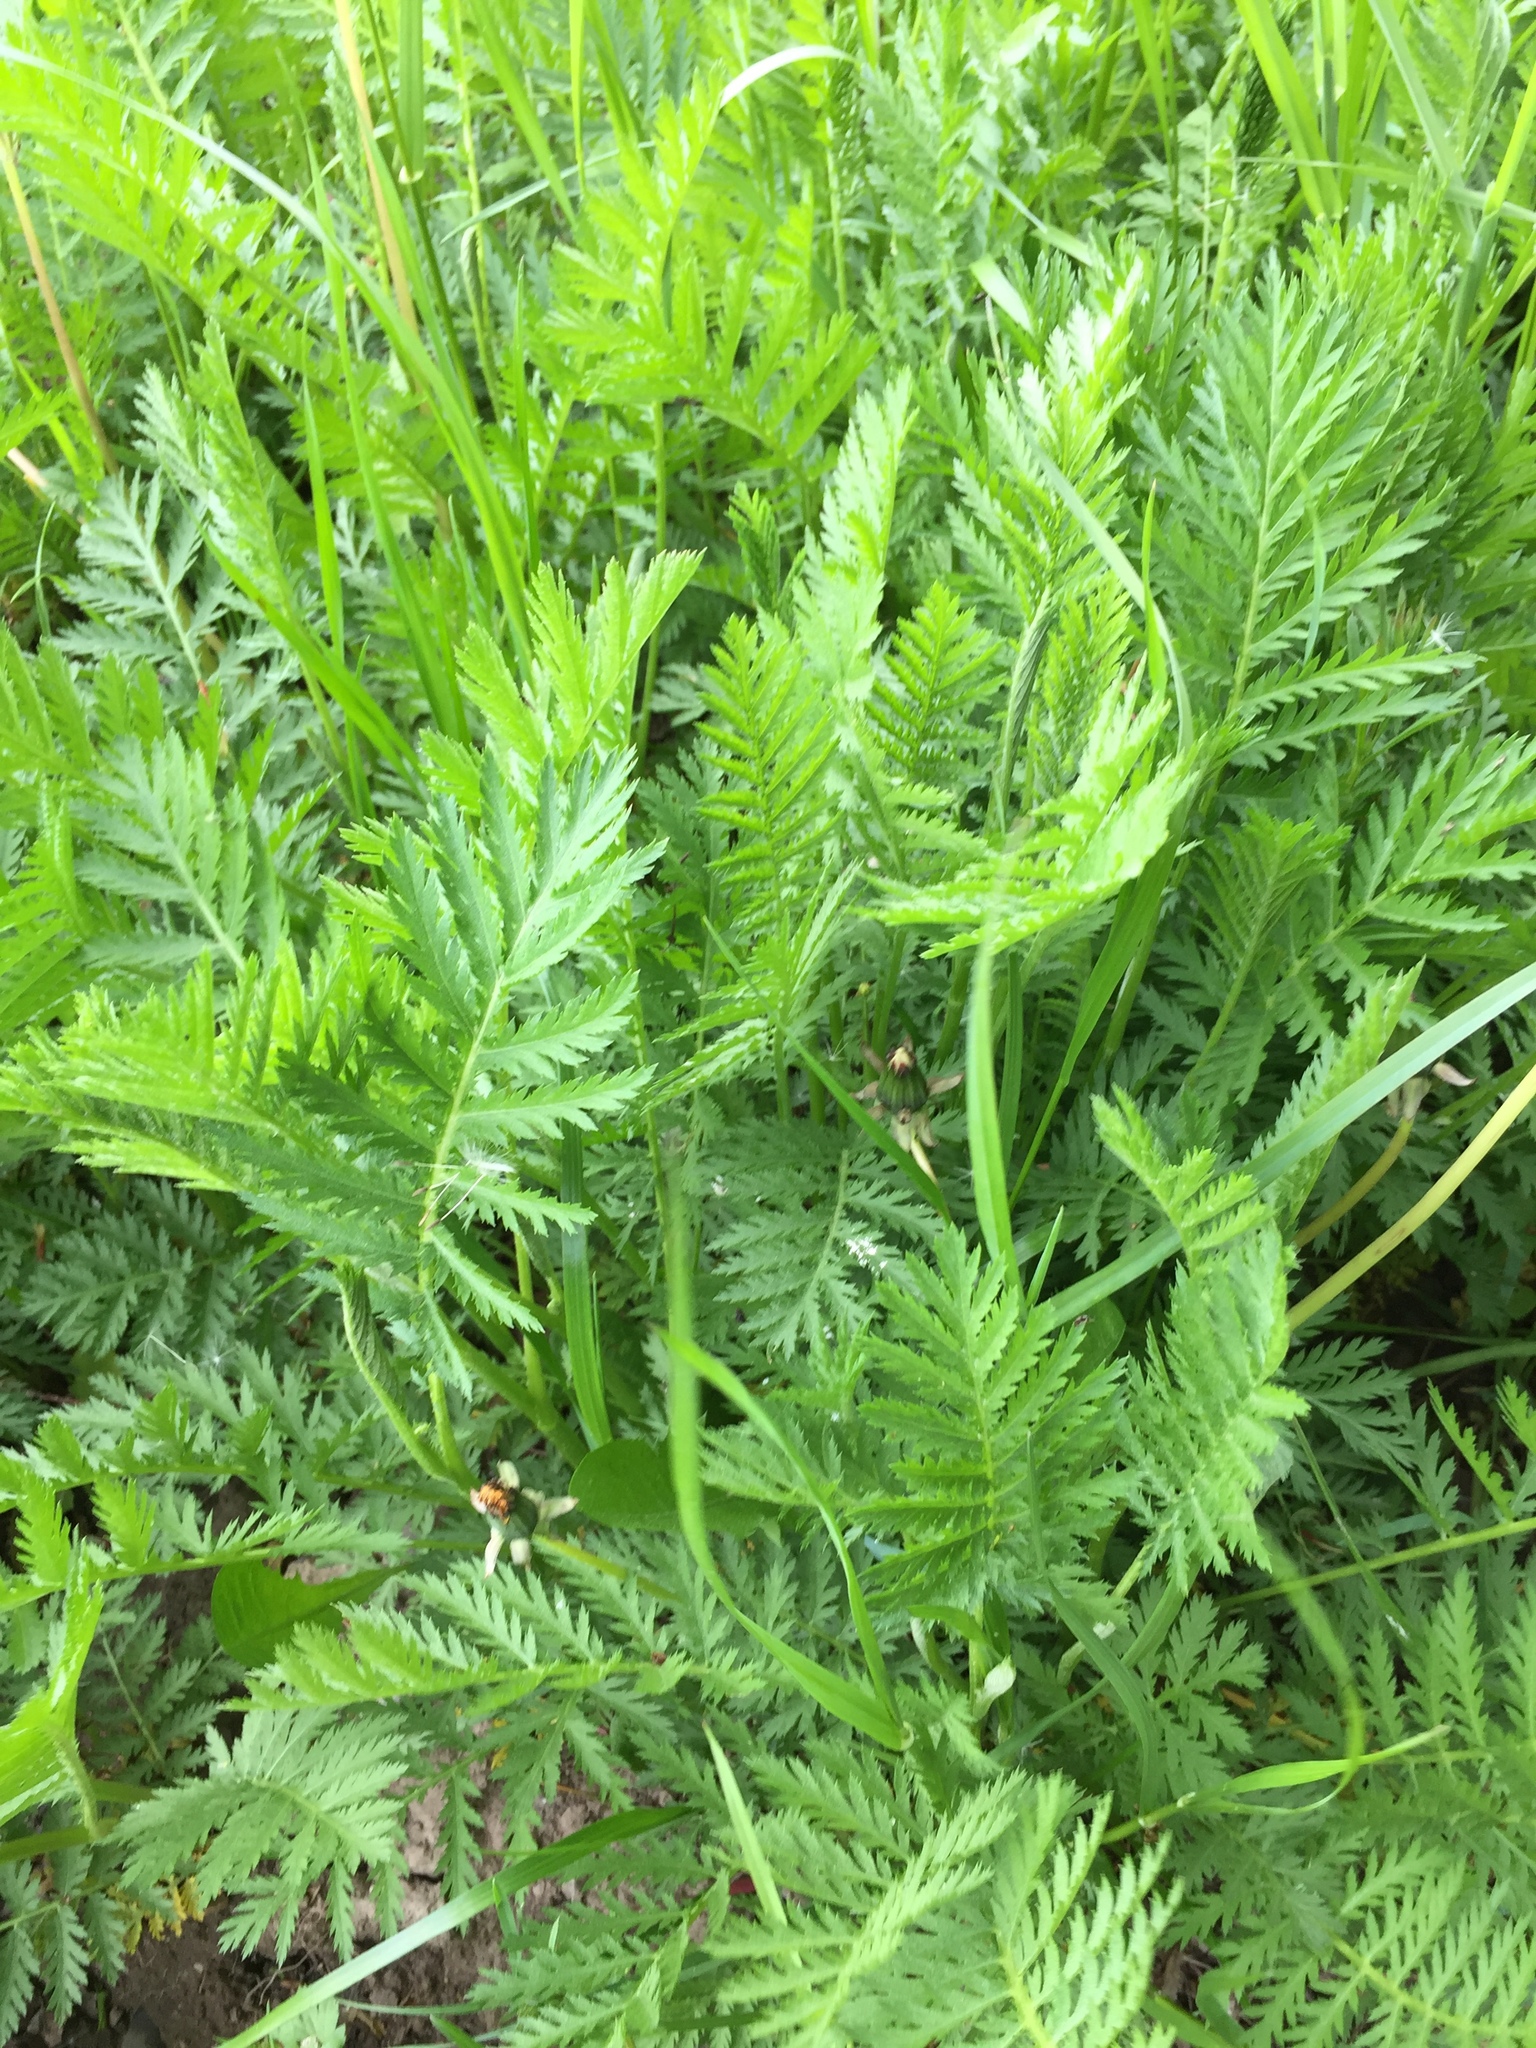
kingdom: Plantae
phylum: Tracheophyta
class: Magnoliopsida
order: Asterales
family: Asteraceae
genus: Tanacetum
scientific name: Tanacetum vulgare
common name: Common tansy
